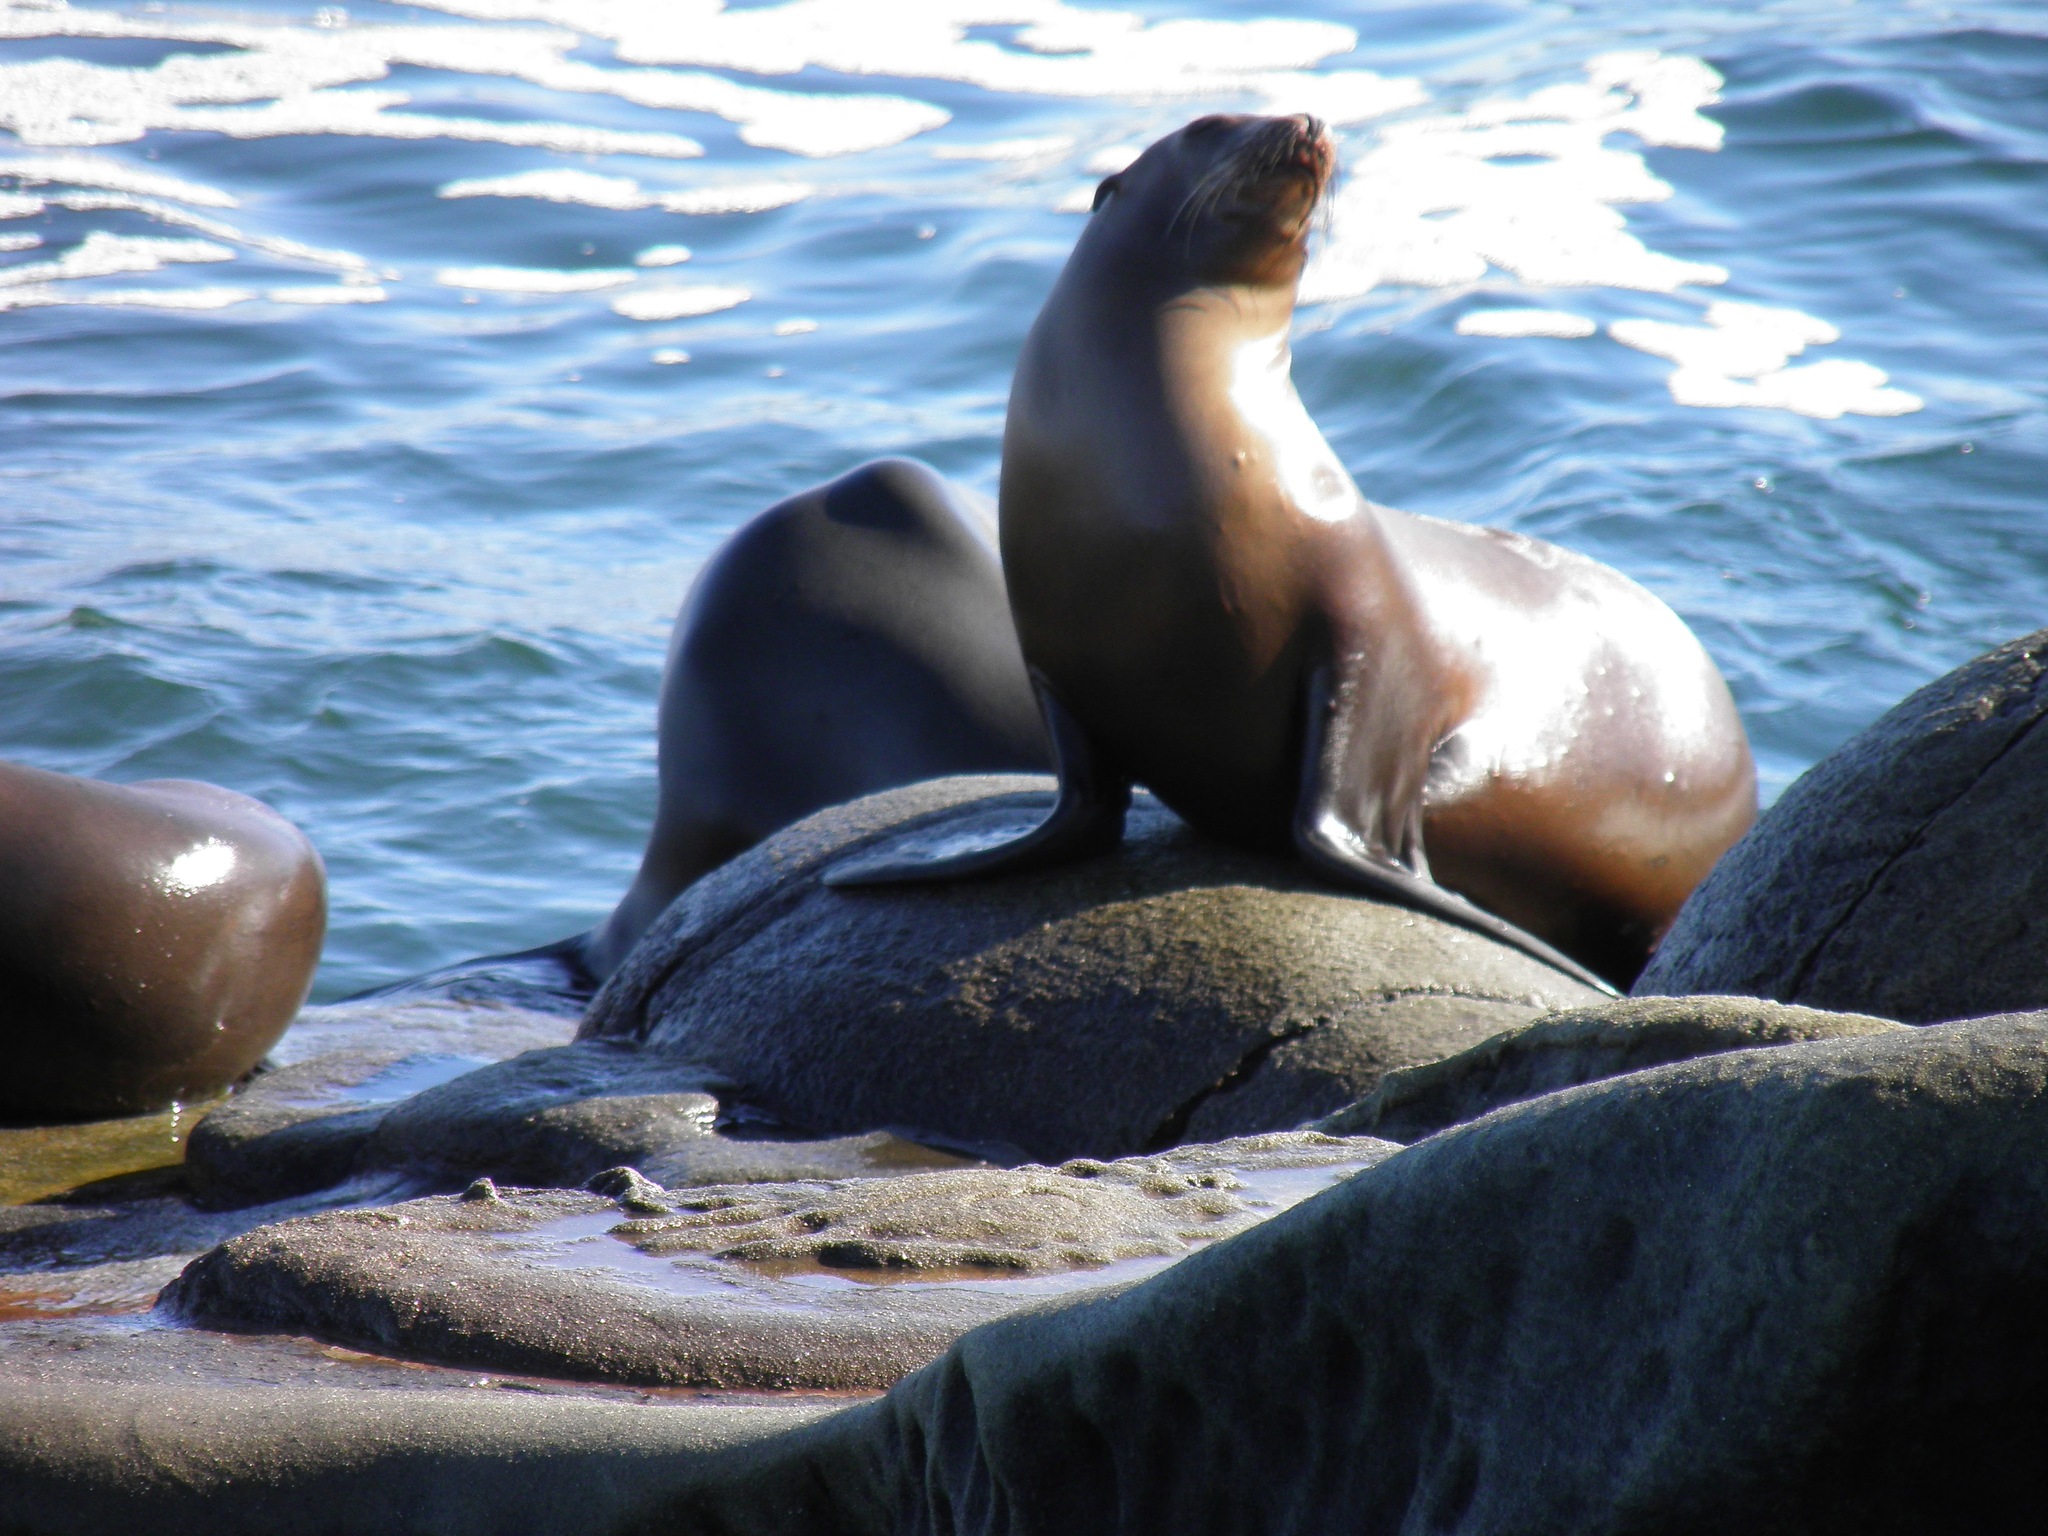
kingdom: Animalia
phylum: Chordata
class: Mammalia
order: Carnivora
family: Otariidae
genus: Zalophus
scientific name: Zalophus californianus
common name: California sea lion
